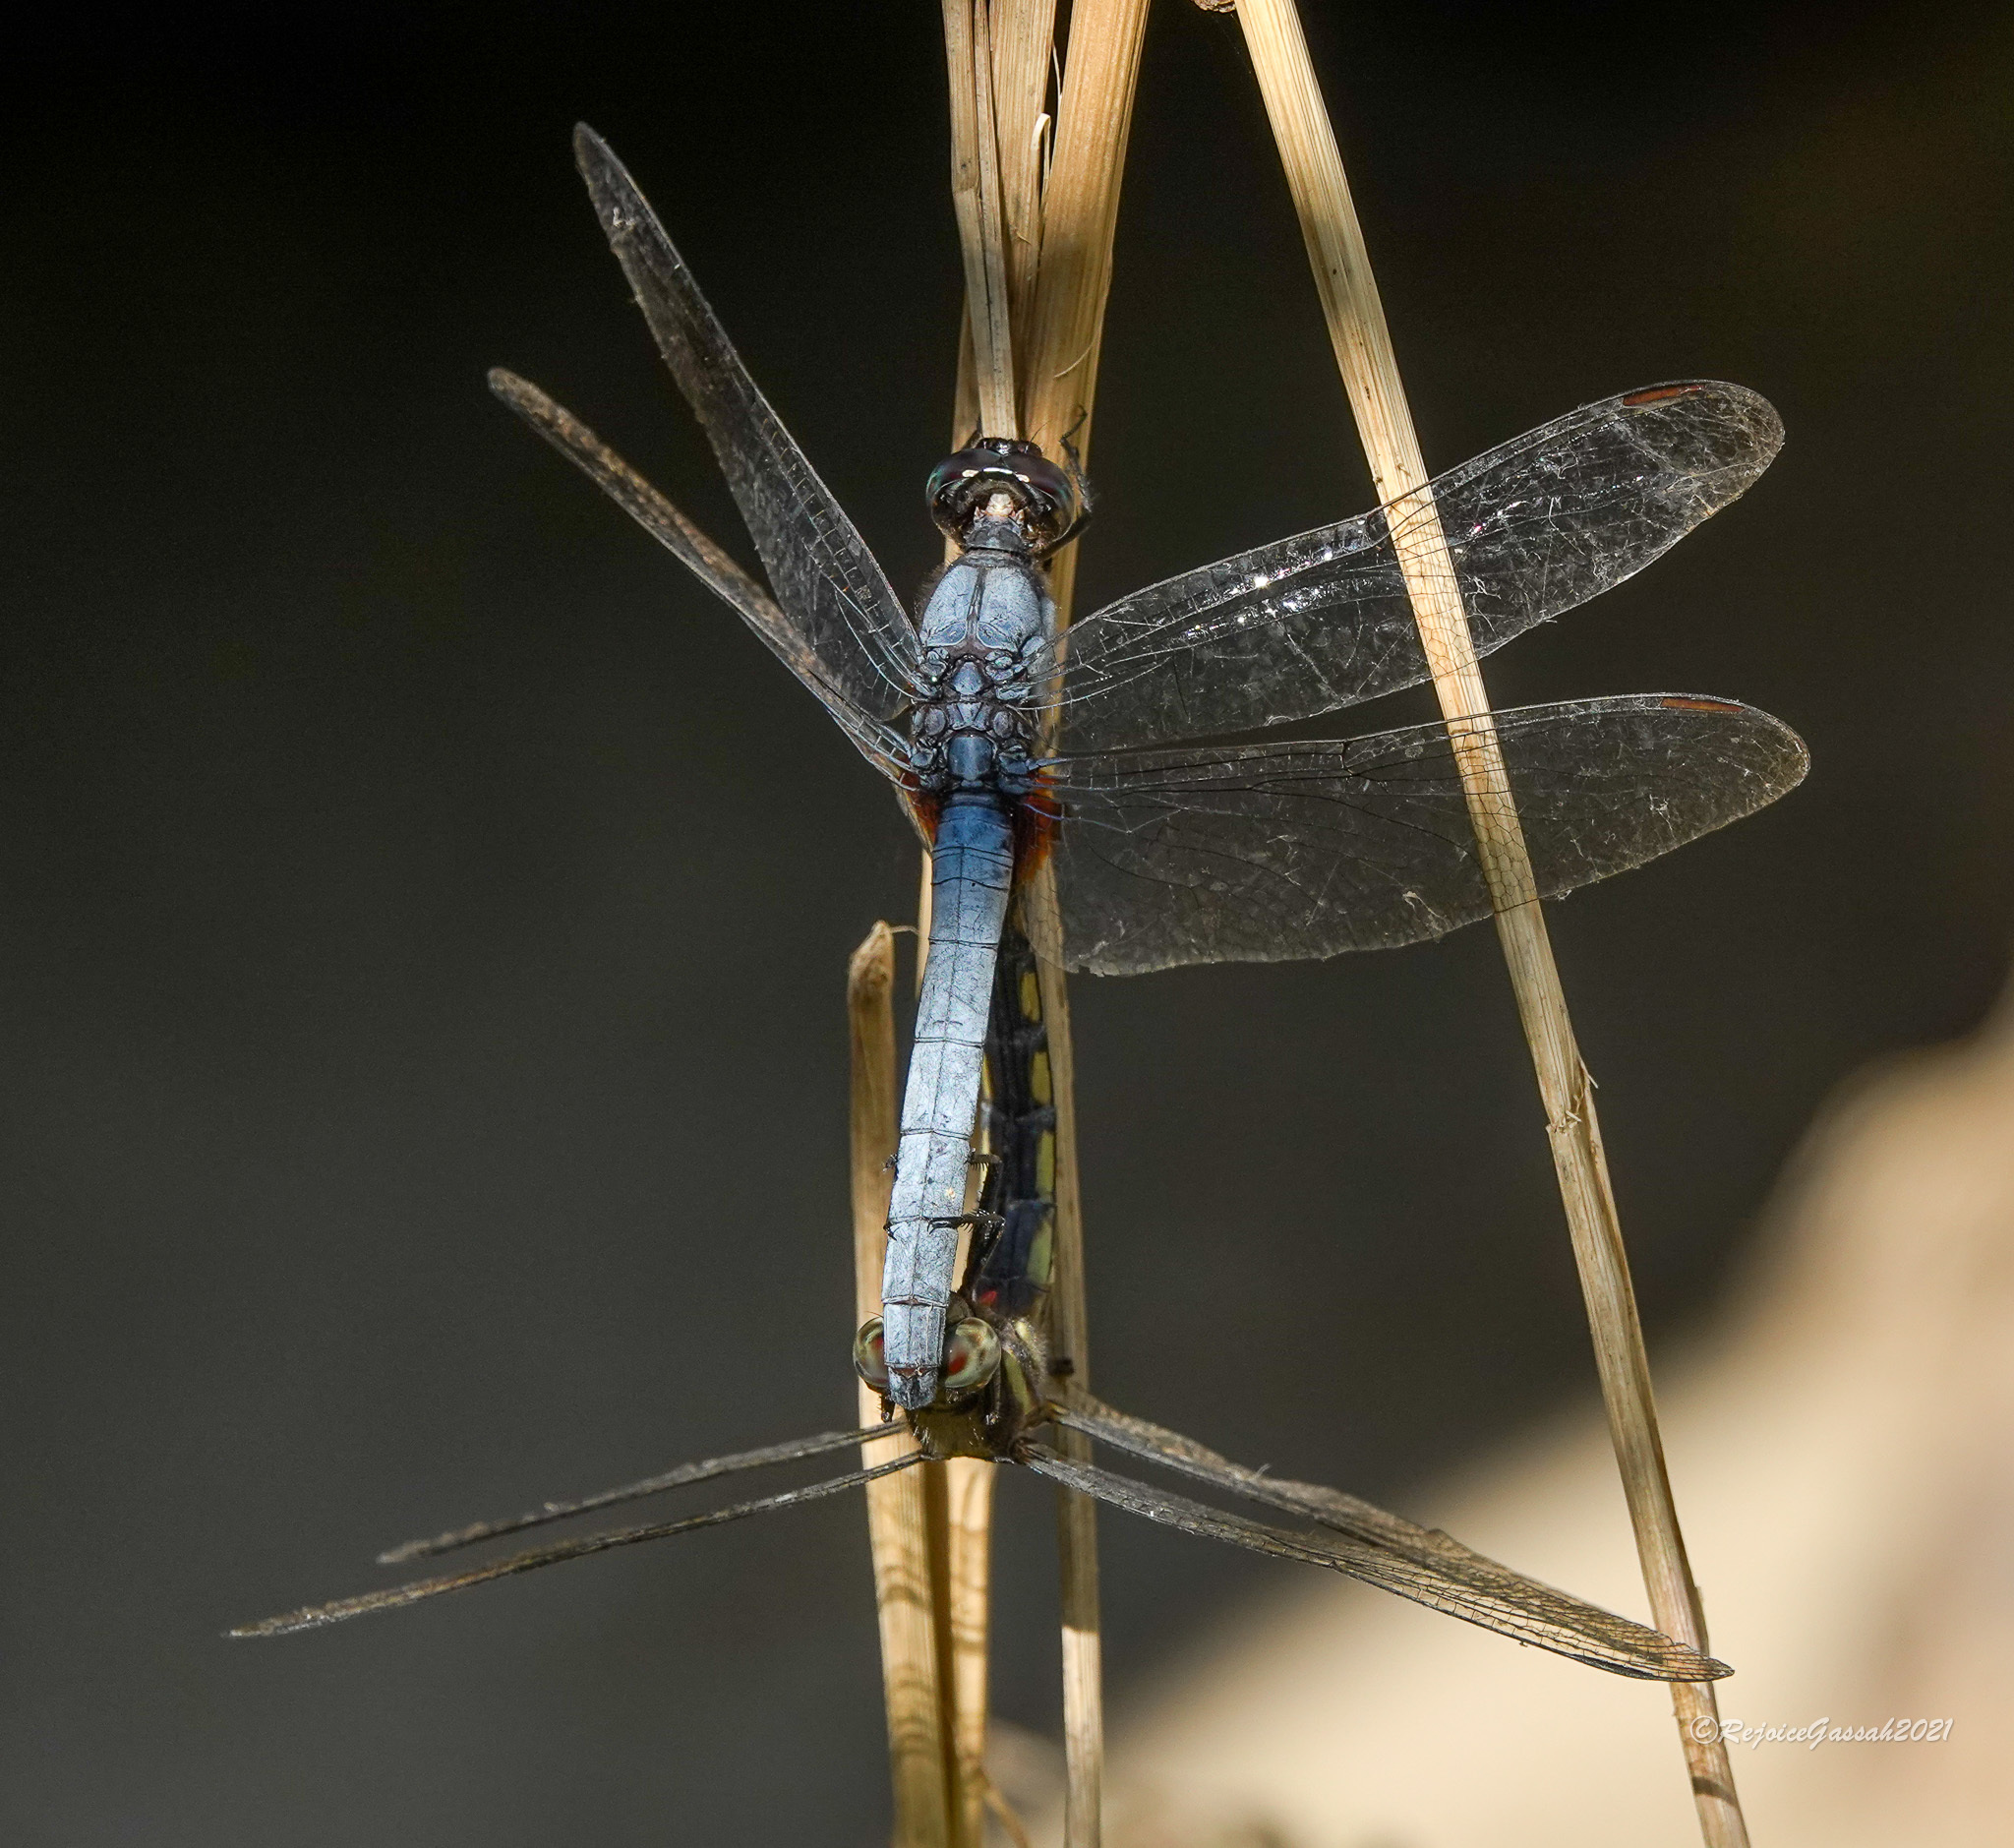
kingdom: Animalia
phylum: Arthropoda
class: Insecta
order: Odonata
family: Libellulidae
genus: Orthetrum
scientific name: Orthetrum glaucum
